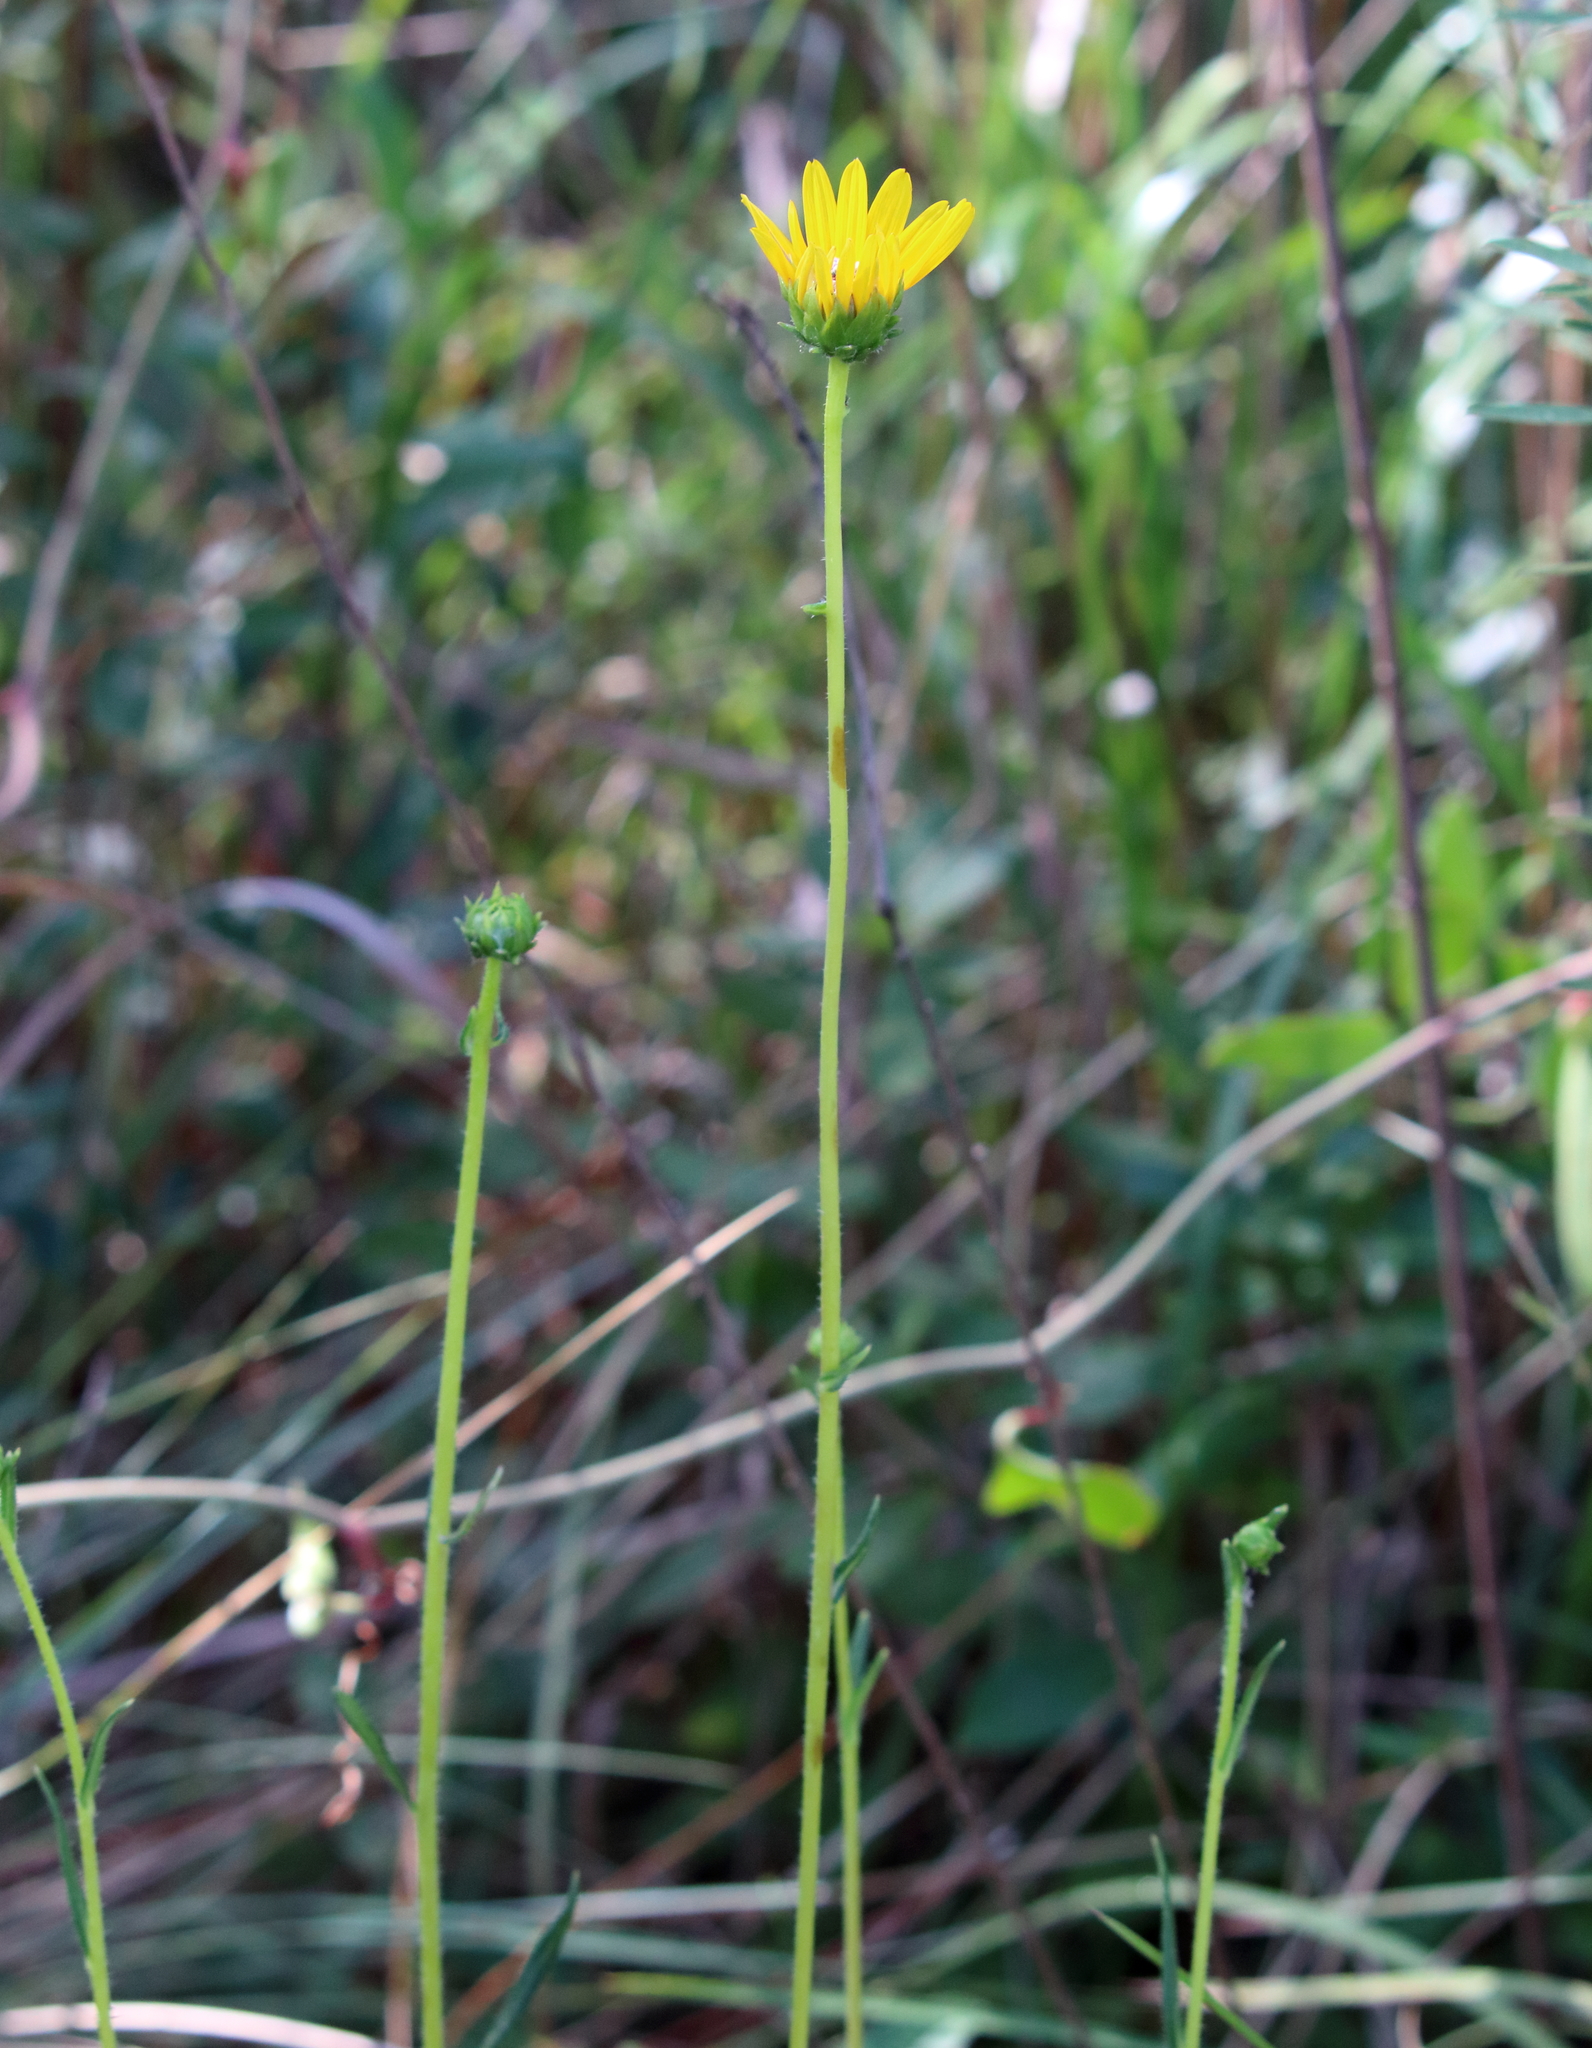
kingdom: Plantae
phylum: Tracheophyta
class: Magnoliopsida
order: Asterales
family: Asteraceae
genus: Helianthus
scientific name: Helianthus heterophyllus
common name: Wetland sunflower
